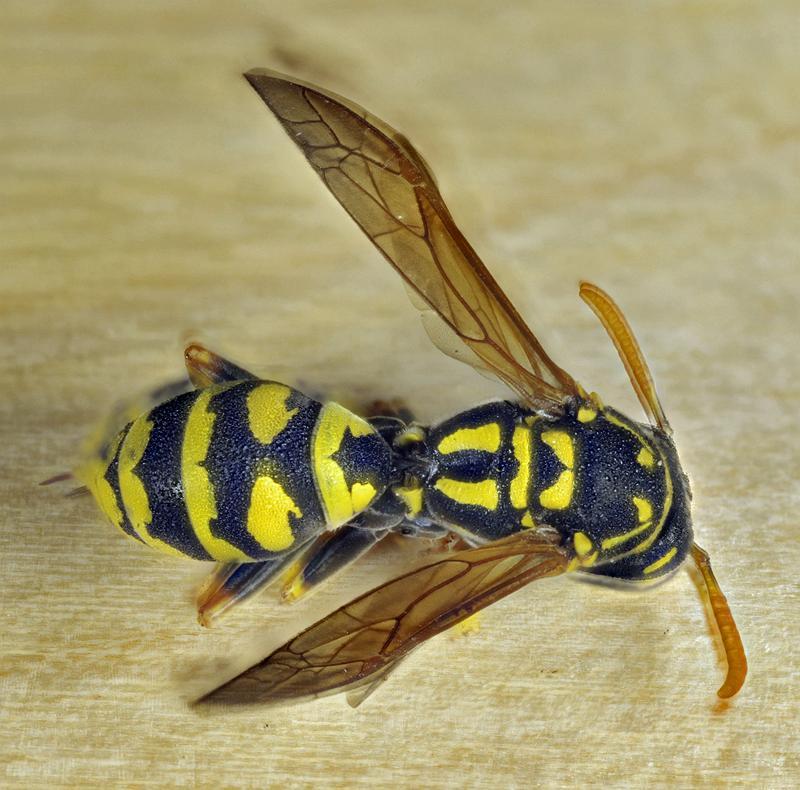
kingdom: Animalia
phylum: Arthropoda
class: Insecta
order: Hymenoptera
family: Eumenidae
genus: Polistes
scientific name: Polistes dominula
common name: Paper wasp
